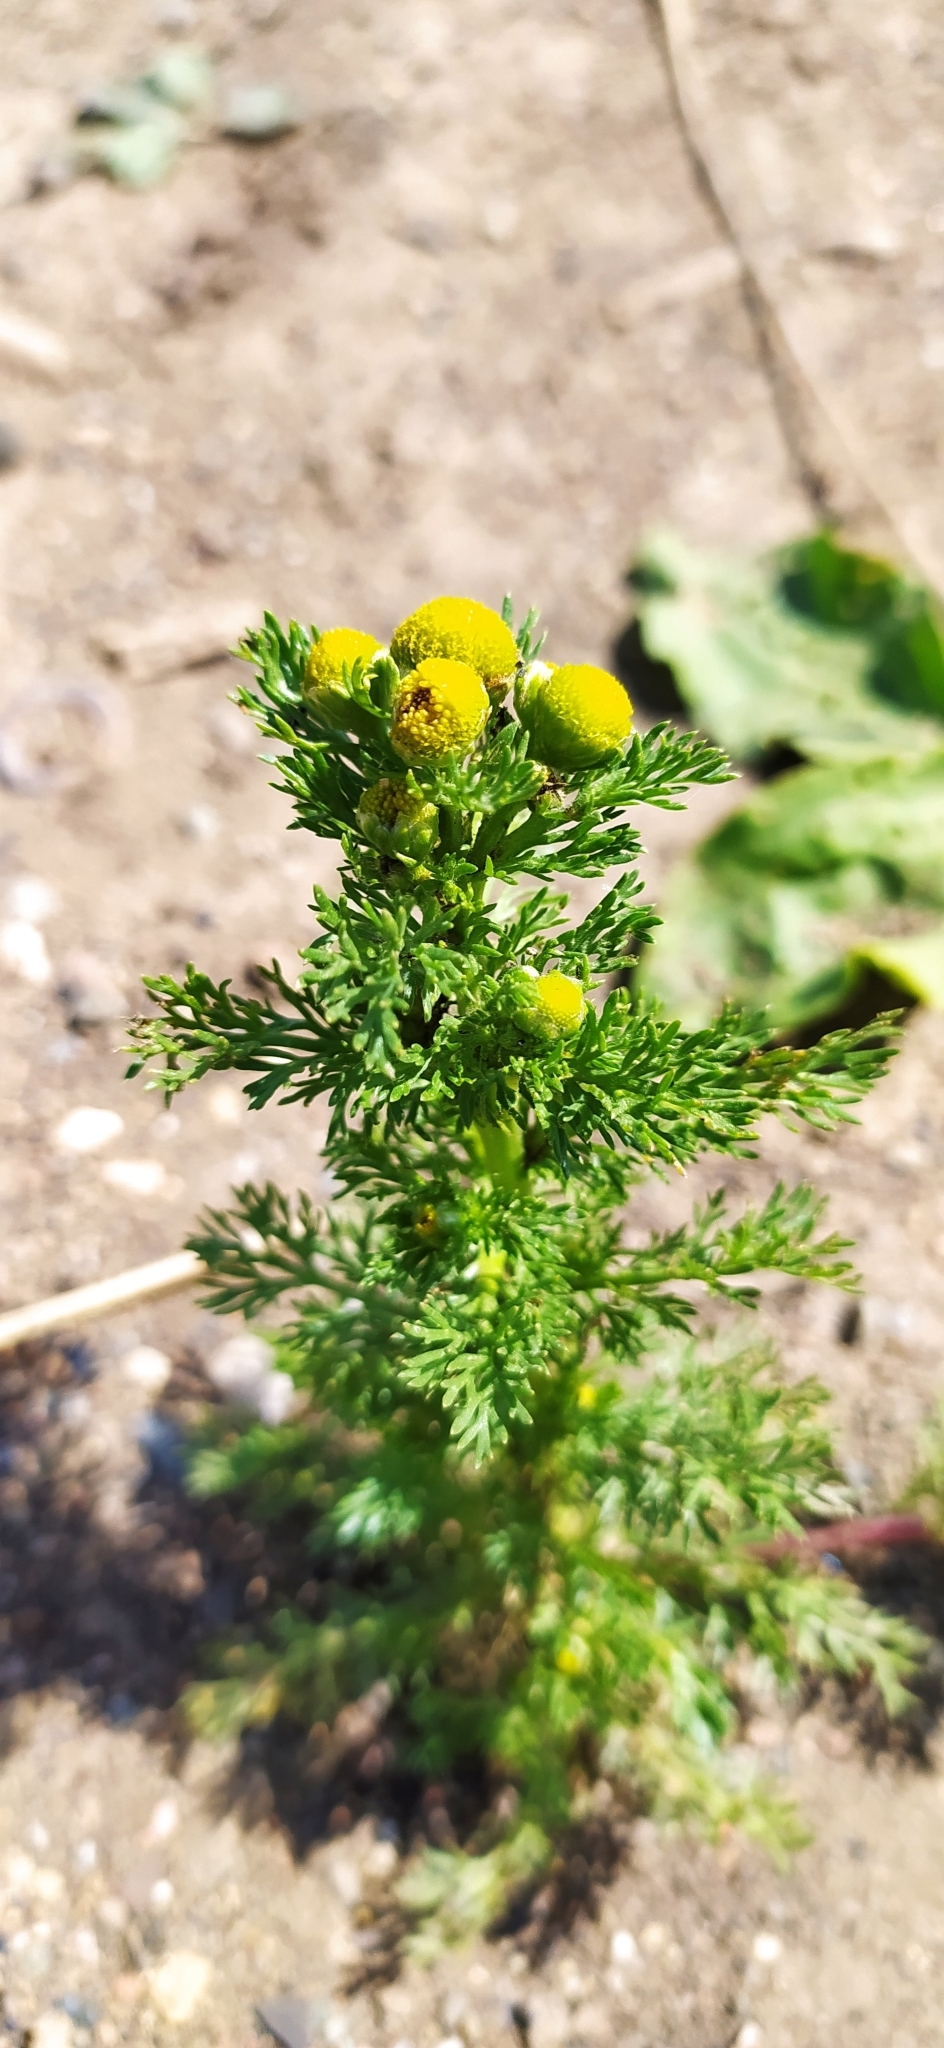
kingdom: Plantae
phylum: Tracheophyta
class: Magnoliopsida
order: Asterales
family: Asteraceae
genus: Matricaria
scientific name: Matricaria discoidea
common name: Disc mayweed
